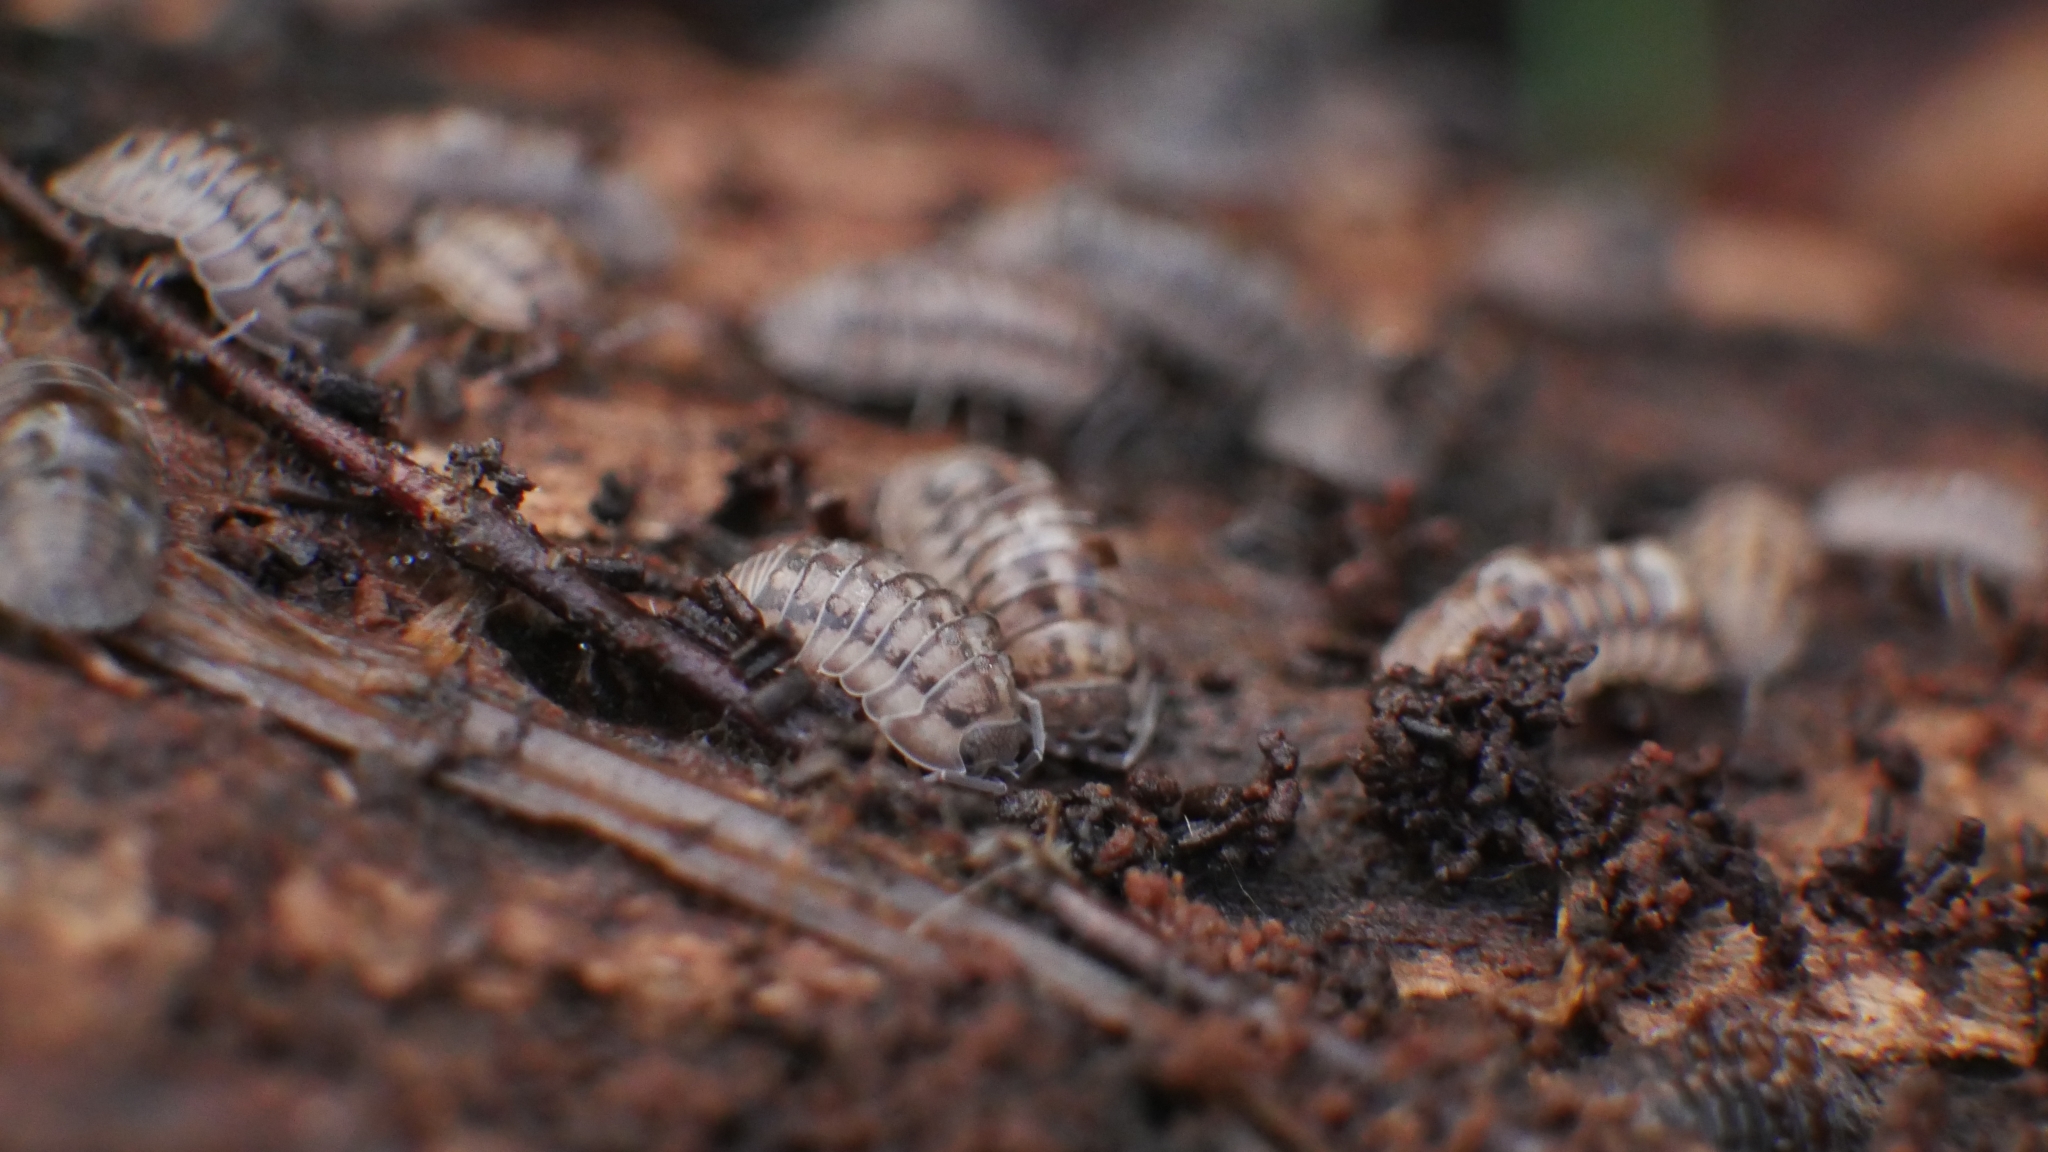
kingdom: Animalia
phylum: Arthropoda
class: Malacostraca
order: Isopoda
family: Armadillidiidae
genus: Armadillidium
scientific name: Armadillidium nasatum
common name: Isopod
